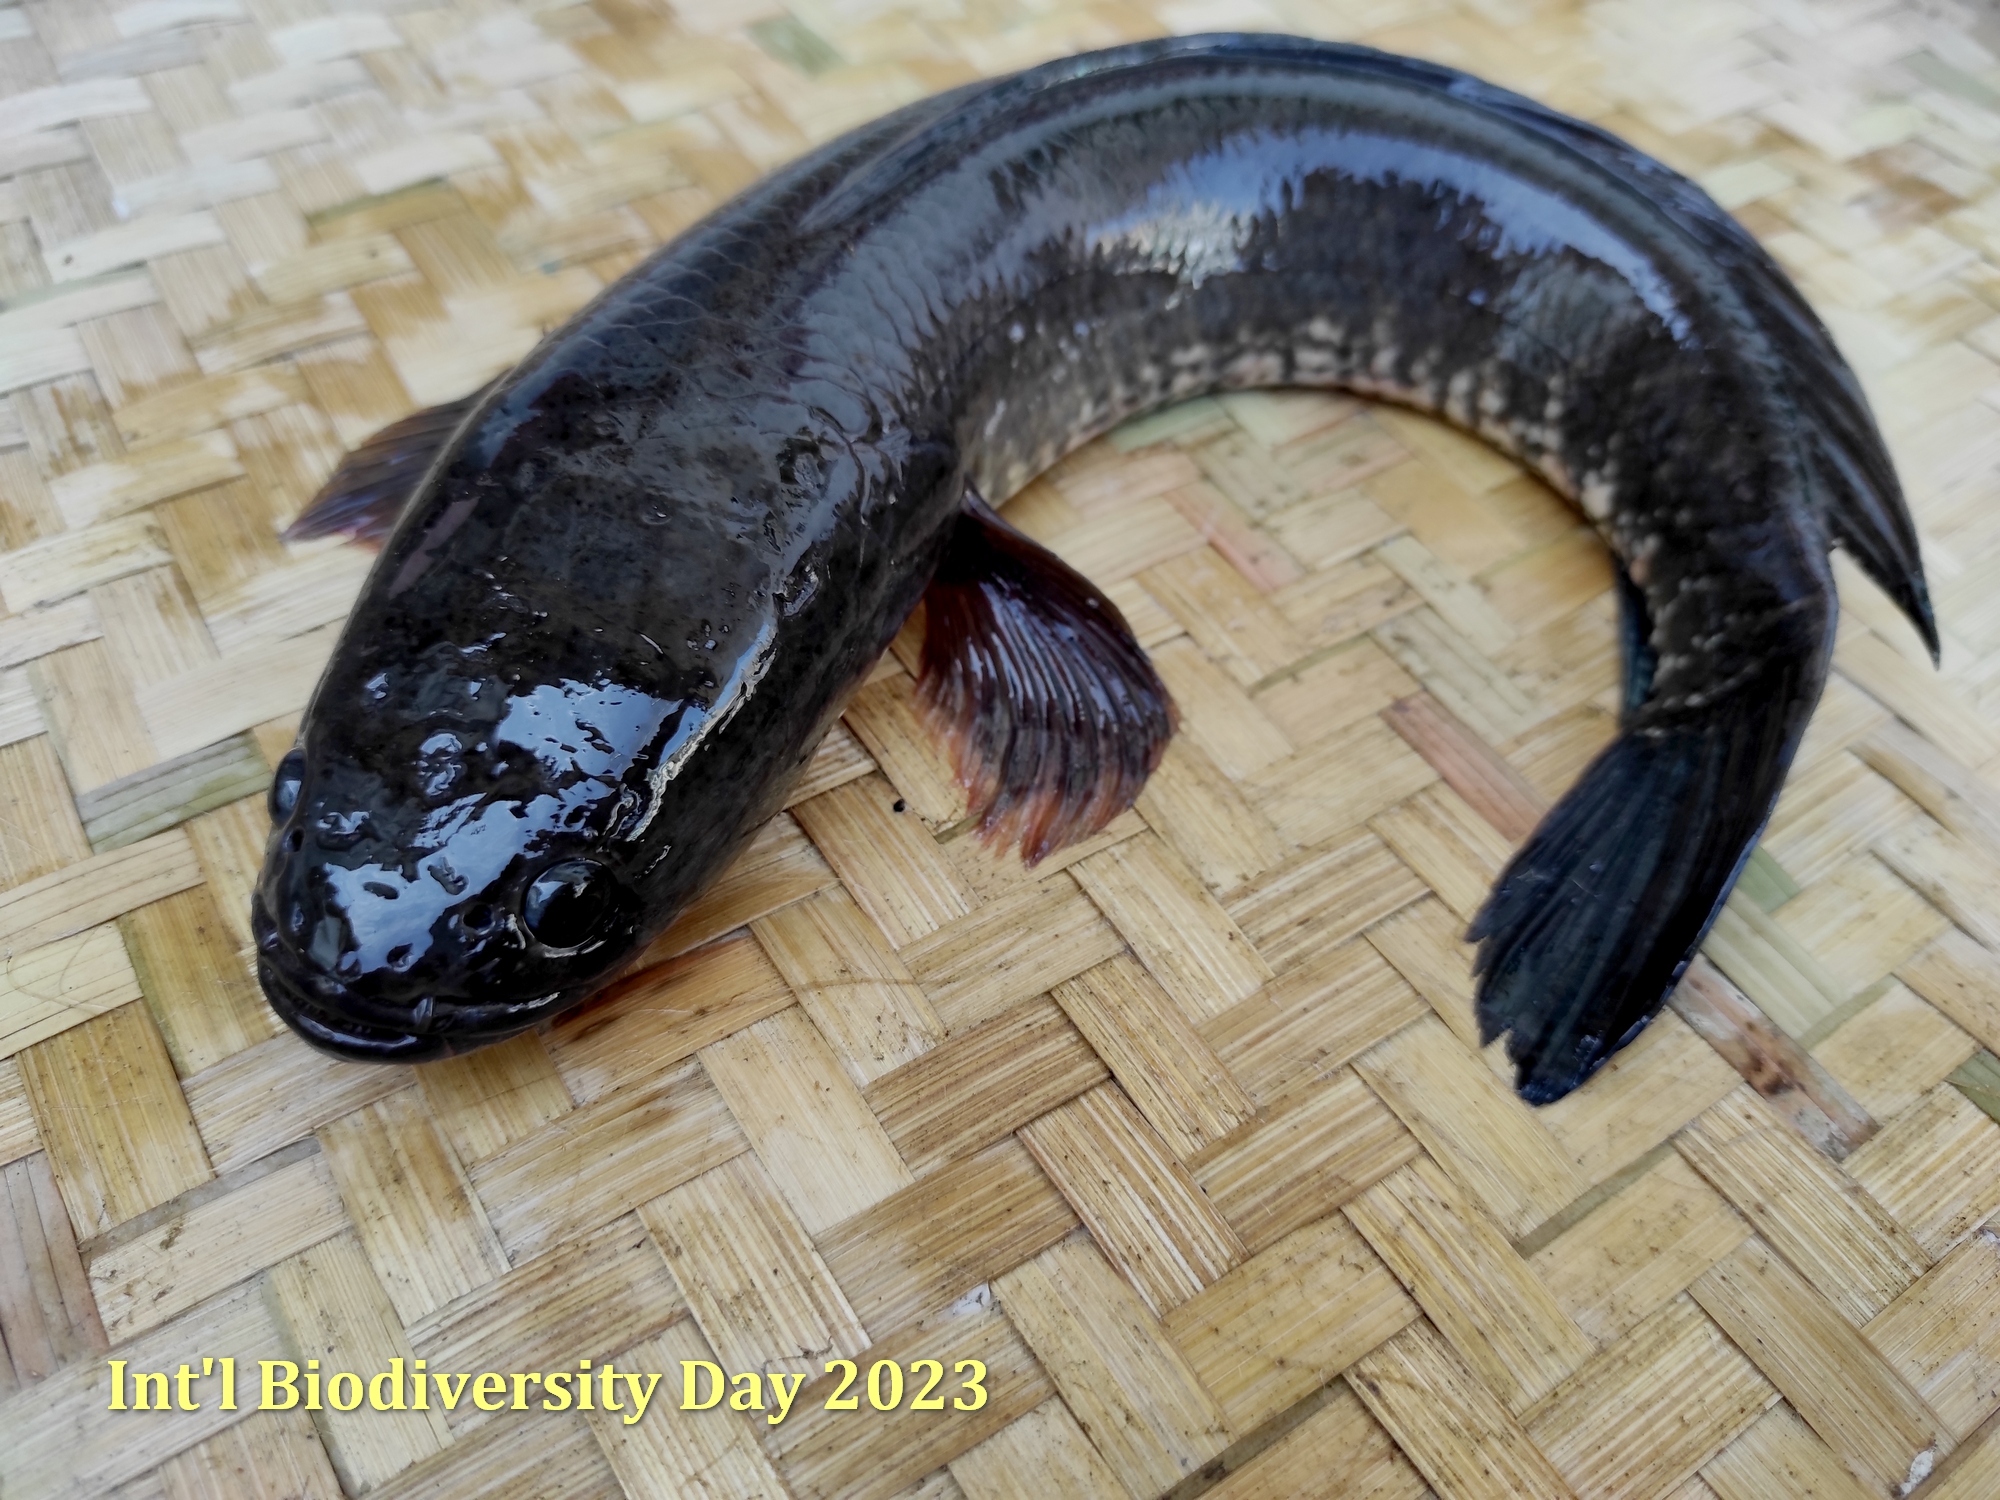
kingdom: Animalia
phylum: Chordata
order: Perciformes
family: Channidae
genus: Channa
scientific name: Channa striata
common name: Striped snakehead
